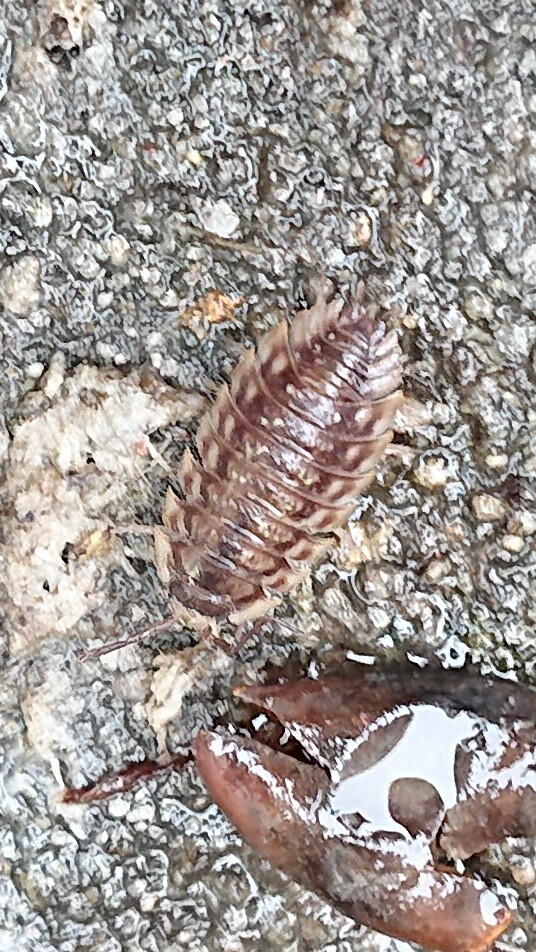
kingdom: Animalia
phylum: Arthropoda
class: Malacostraca
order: Isopoda
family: Oniscidae
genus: Oniscus
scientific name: Oniscus asellus
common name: Common shiny woodlouse
